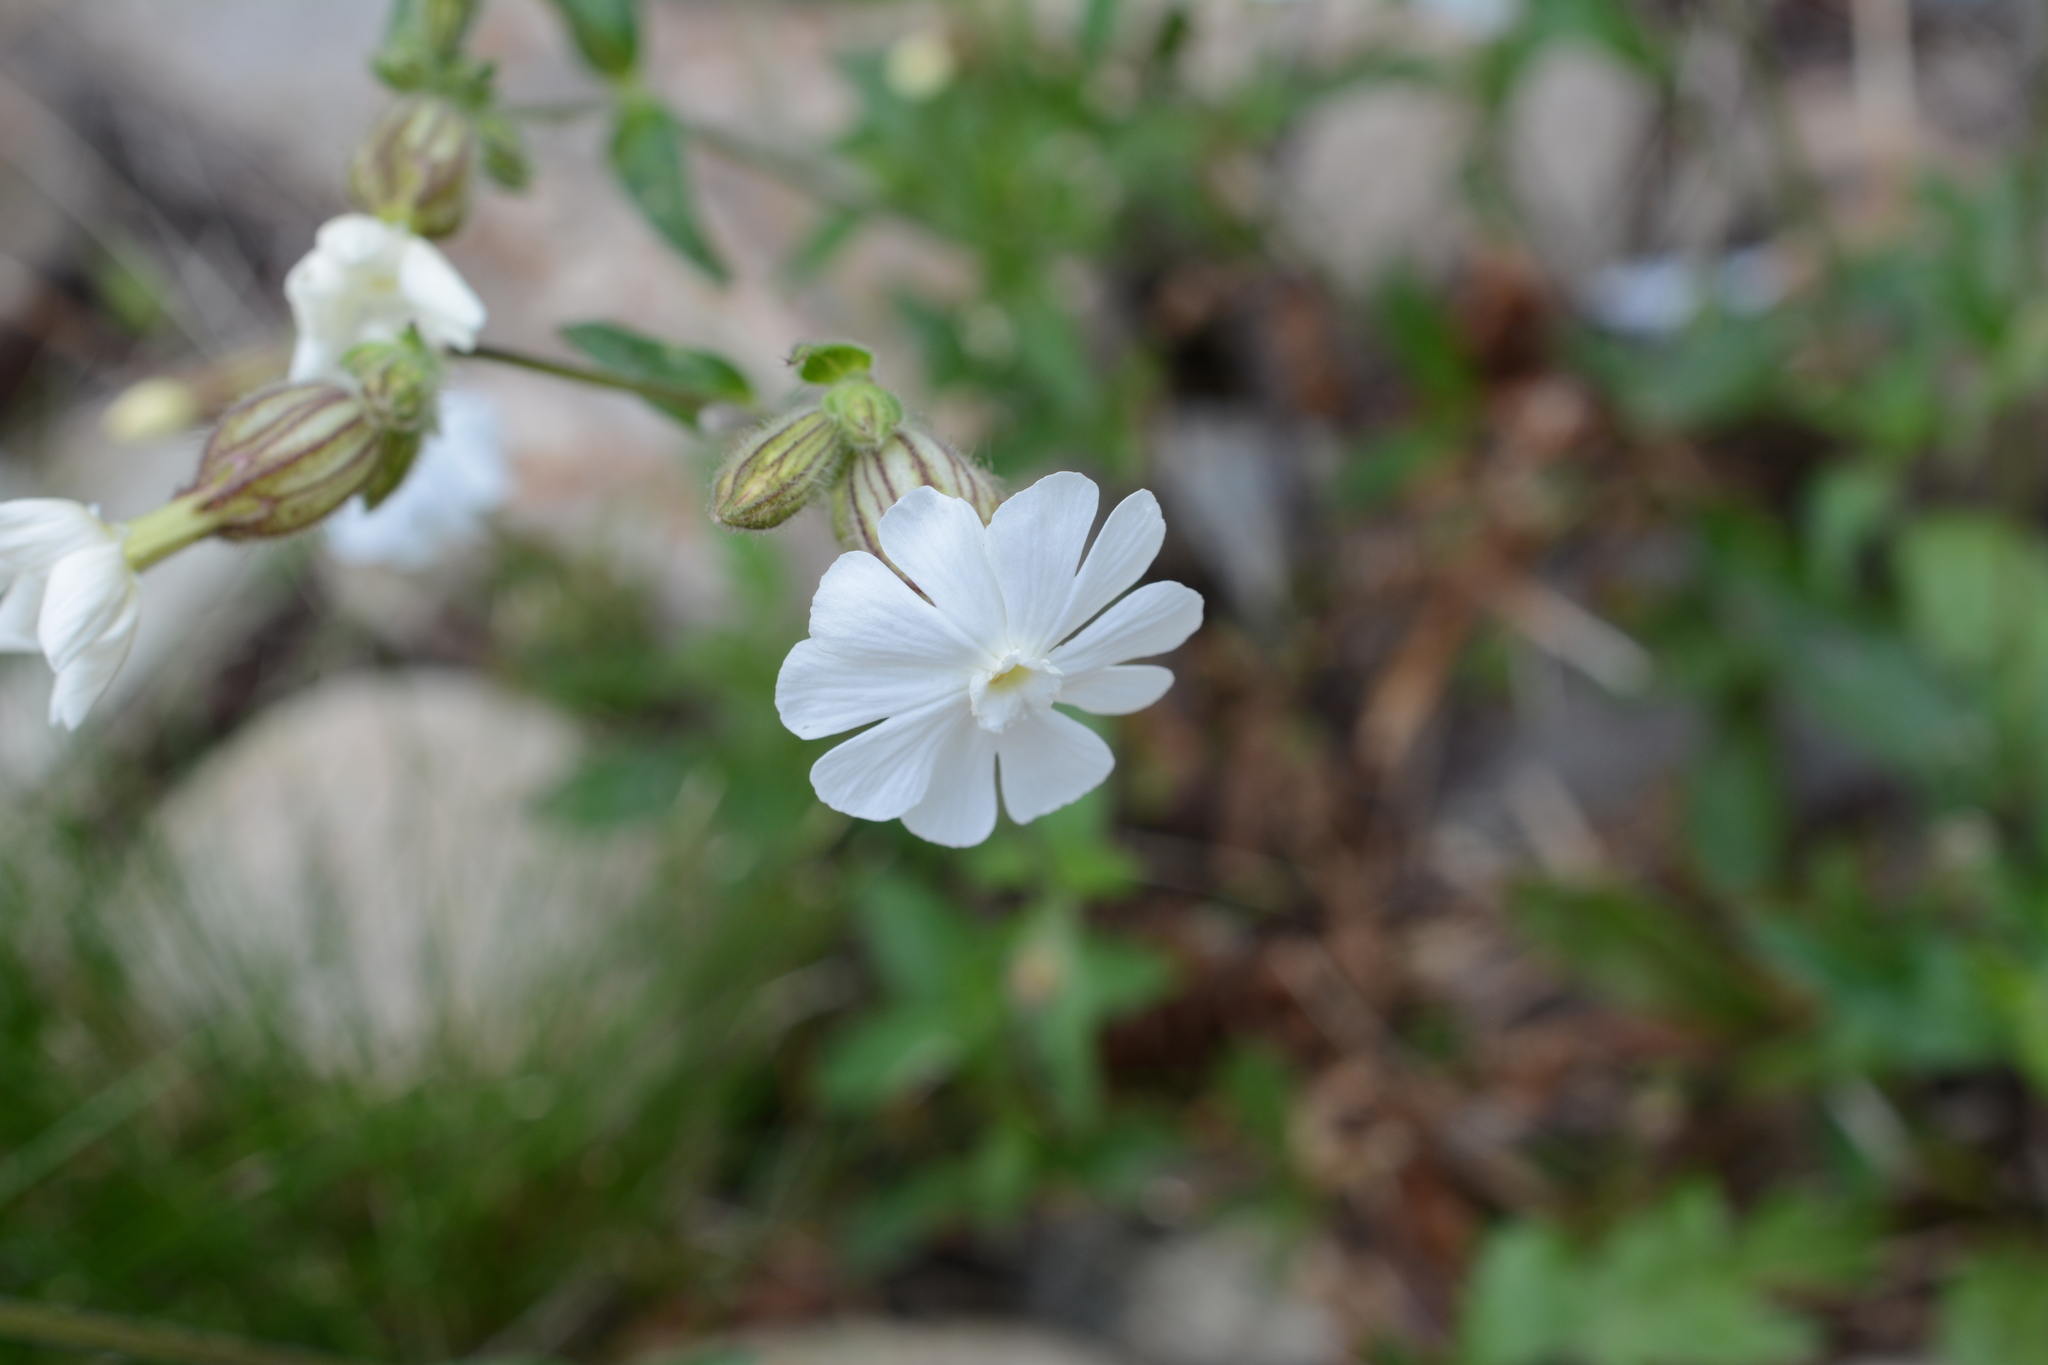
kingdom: Plantae
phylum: Tracheophyta
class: Magnoliopsida
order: Caryophyllales
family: Caryophyllaceae
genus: Silene
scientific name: Silene latifolia
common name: White campion
